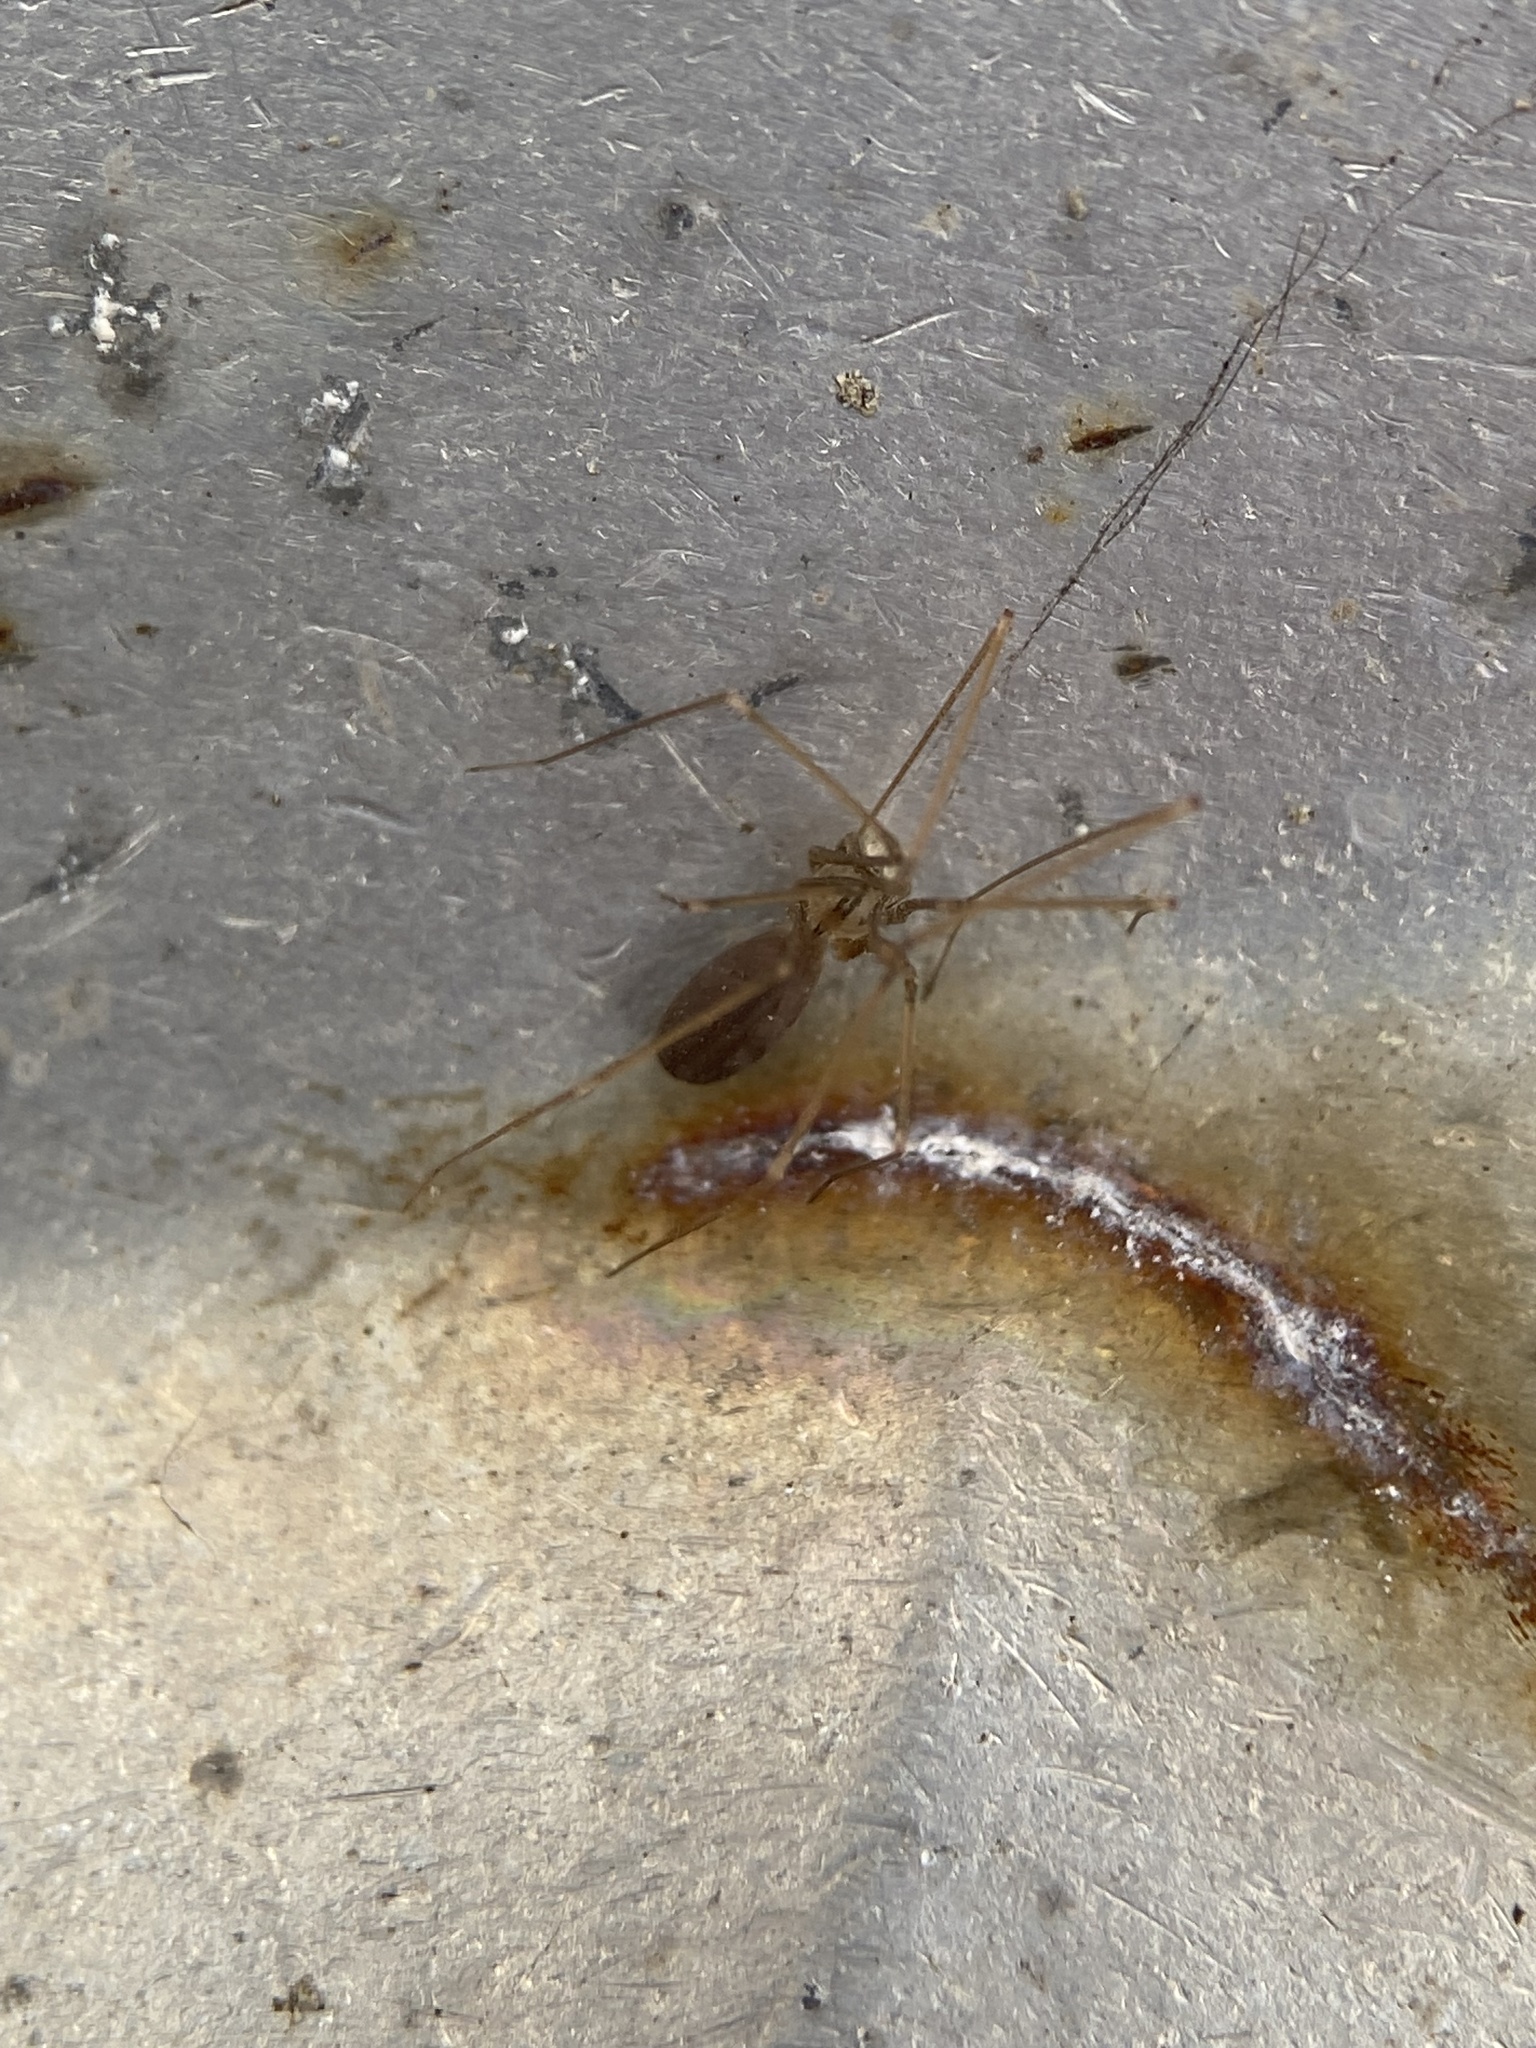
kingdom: Animalia
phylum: Arthropoda
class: Arachnida
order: Araneae
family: Pholcidae
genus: Pholcus
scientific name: Pholcus opilionoides
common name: Daddylongleg spider
